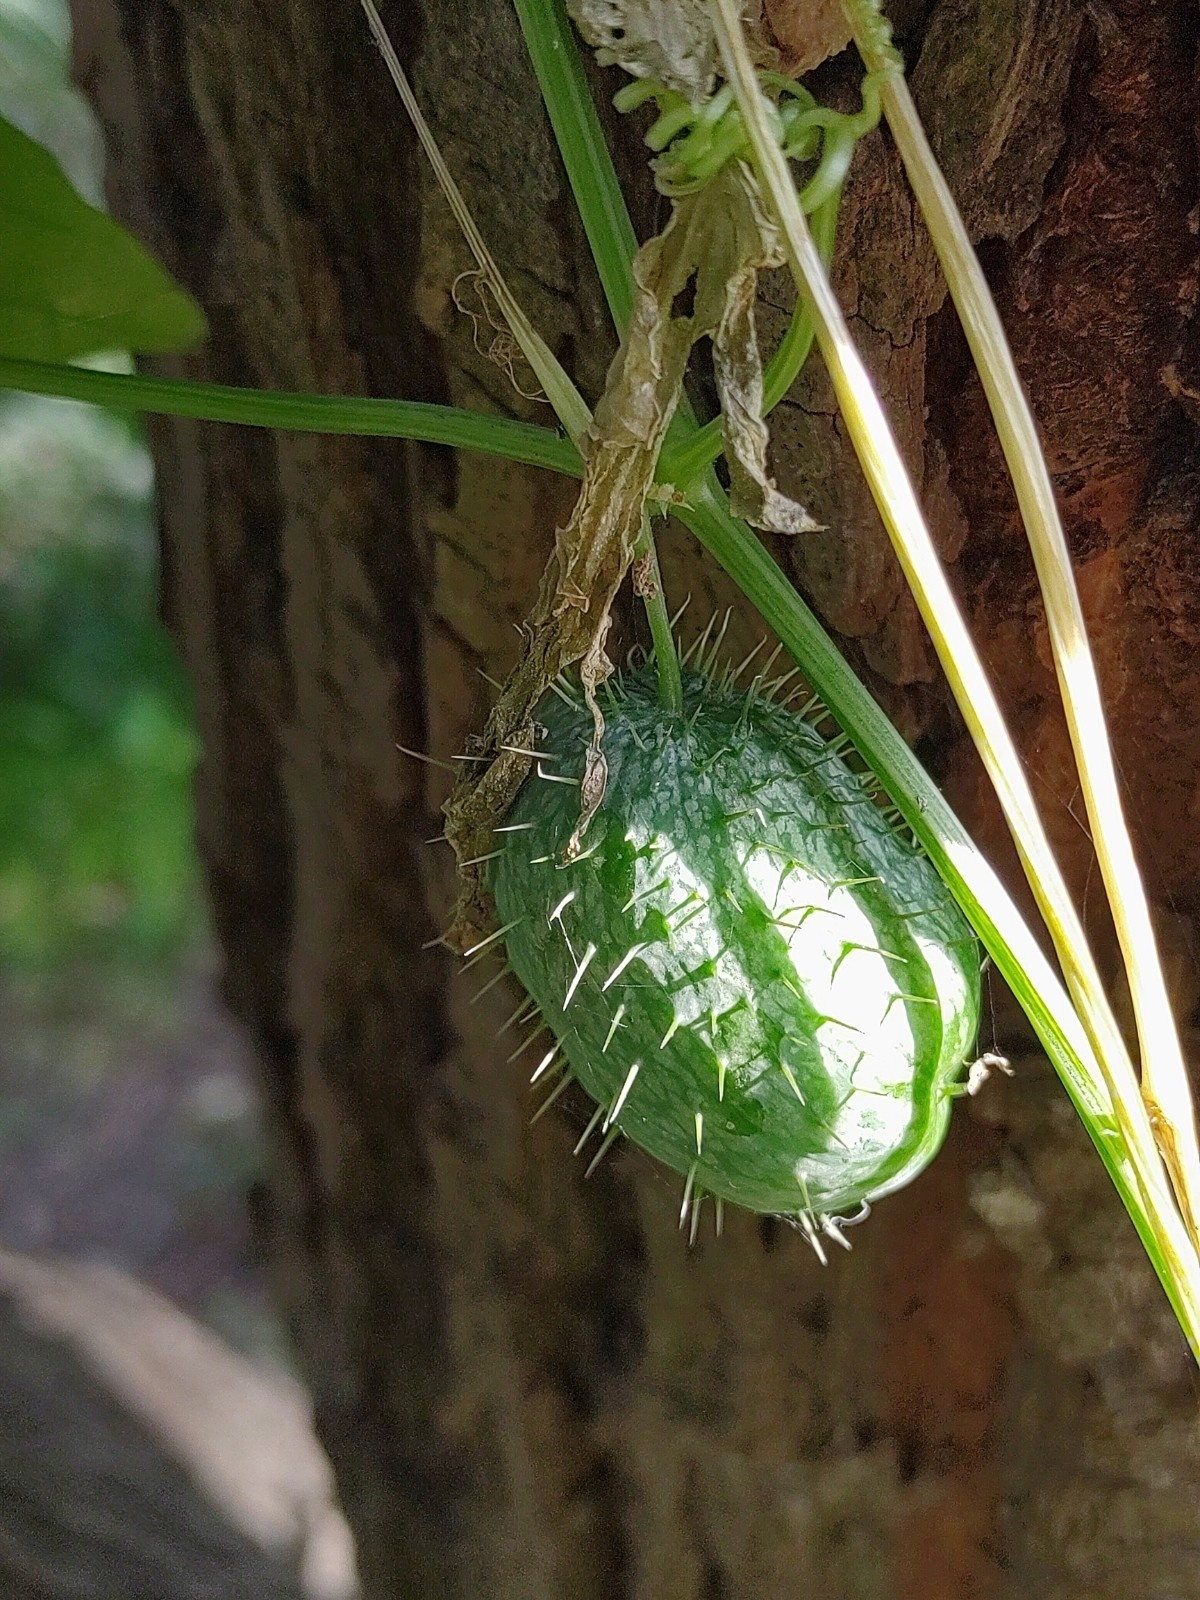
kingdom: Plantae
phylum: Tracheophyta
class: Magnoliopsida
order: Cucurbitales
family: Cucurbitaceae
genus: Echinocystis
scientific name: Echinocystis lobata
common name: Wild cucumber
